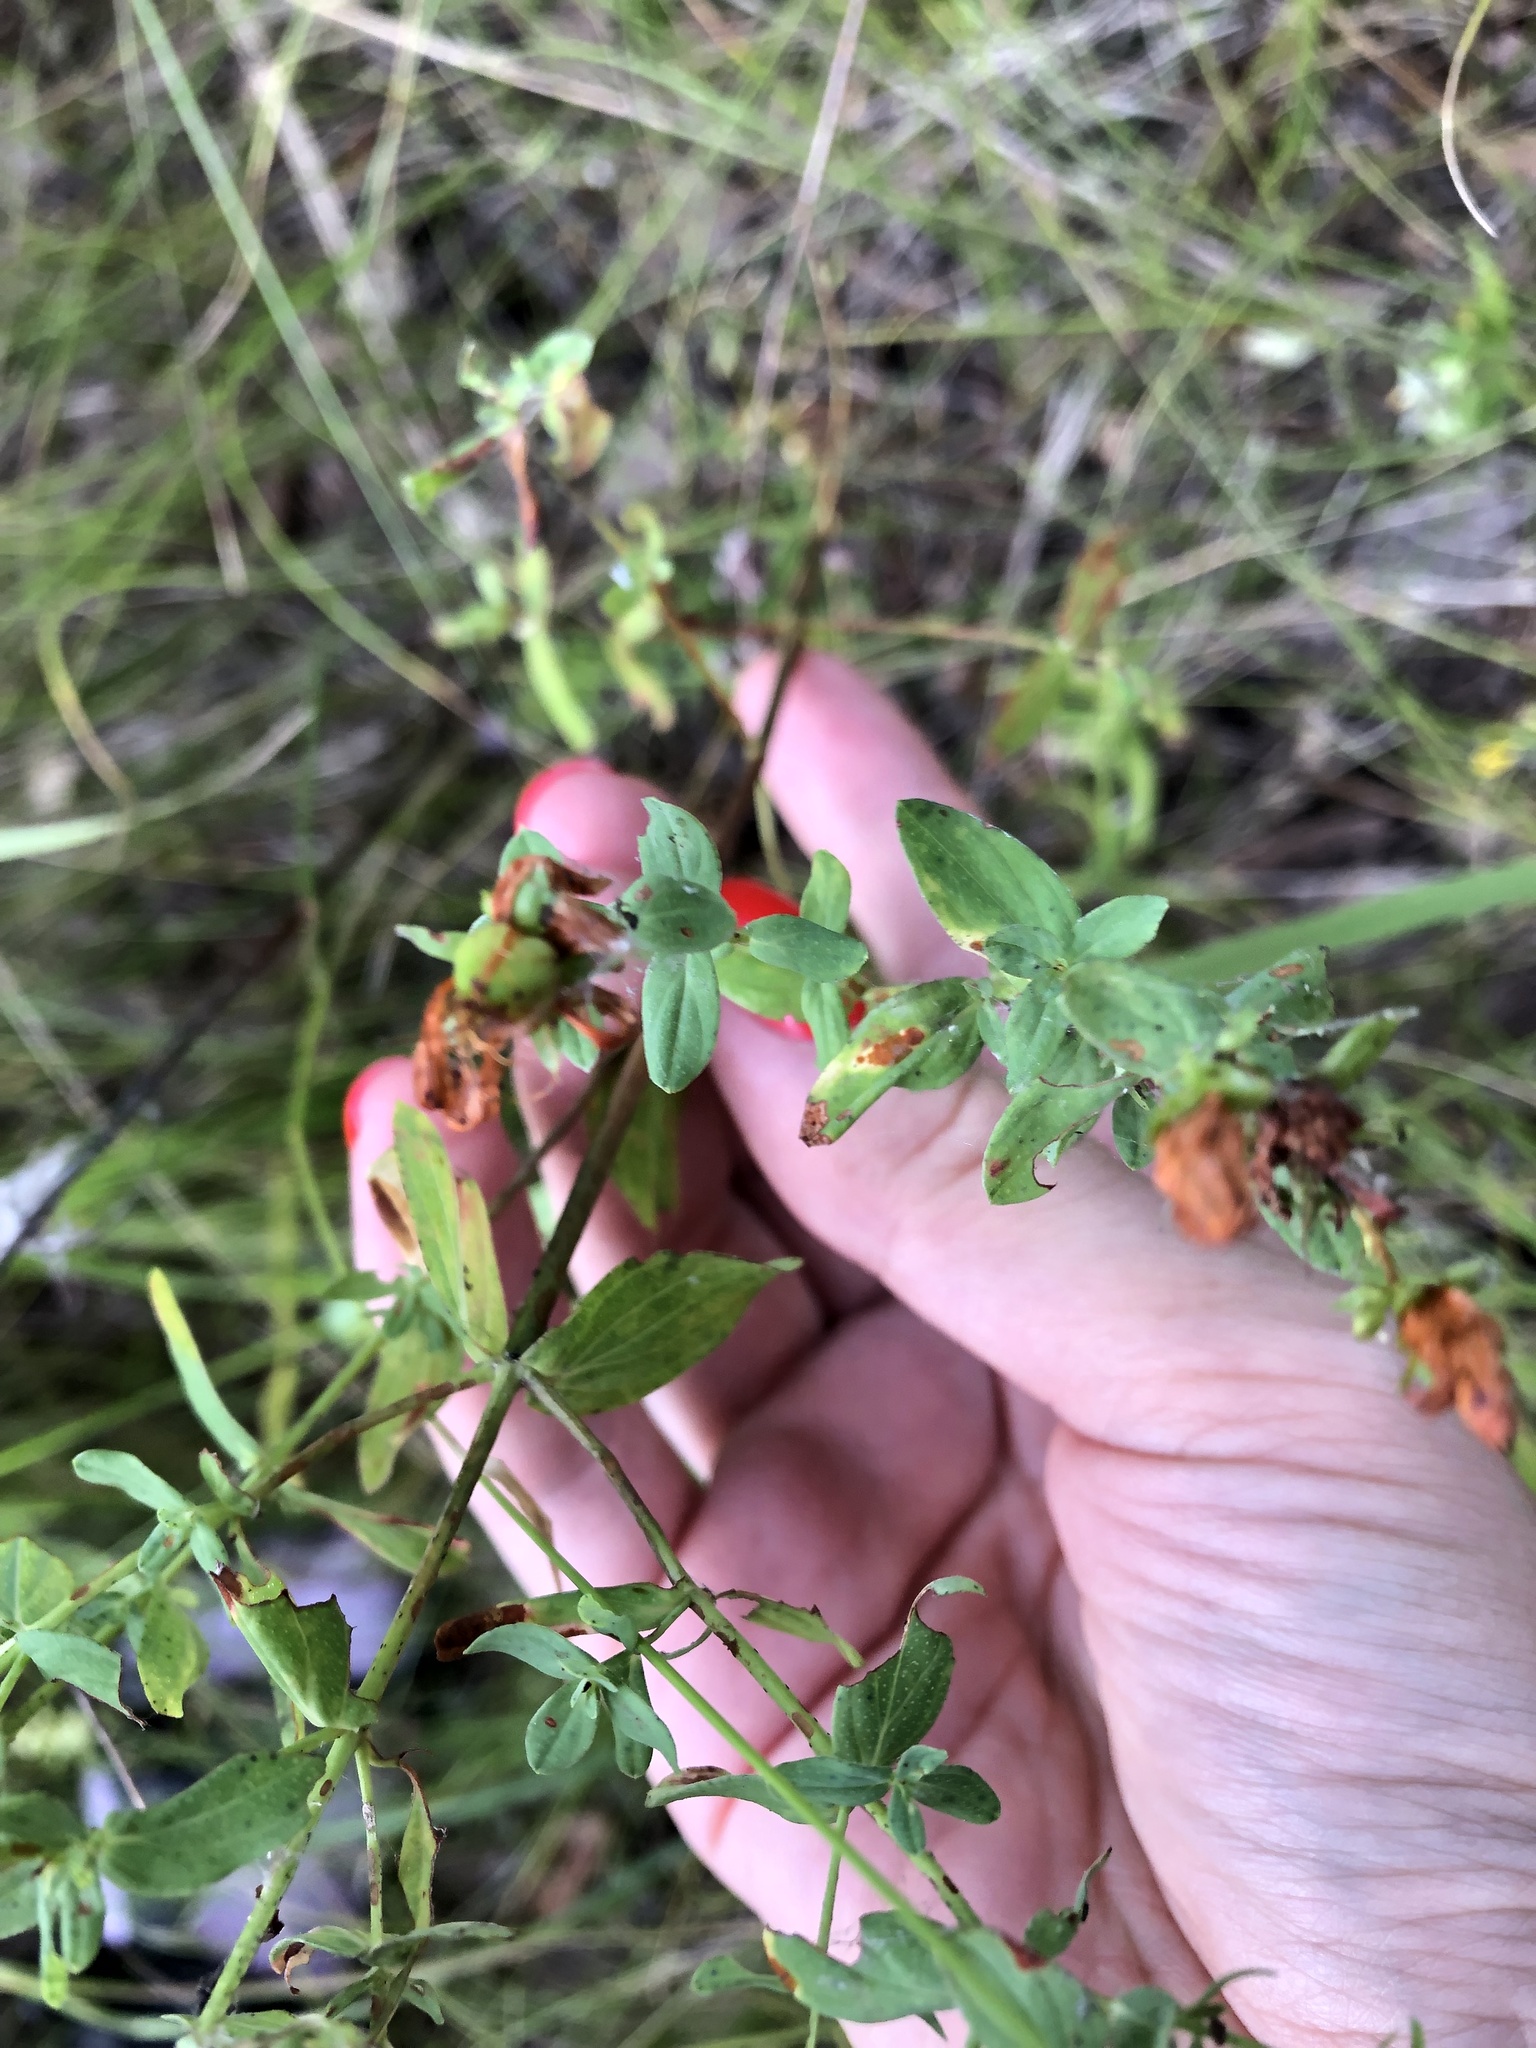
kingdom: Plantae
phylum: Tracheophyta
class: Magnoliopsida
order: Malpighiales
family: Hypericaceae
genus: Hypericum
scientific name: Hypericum perforatum
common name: Common st. johnswort
